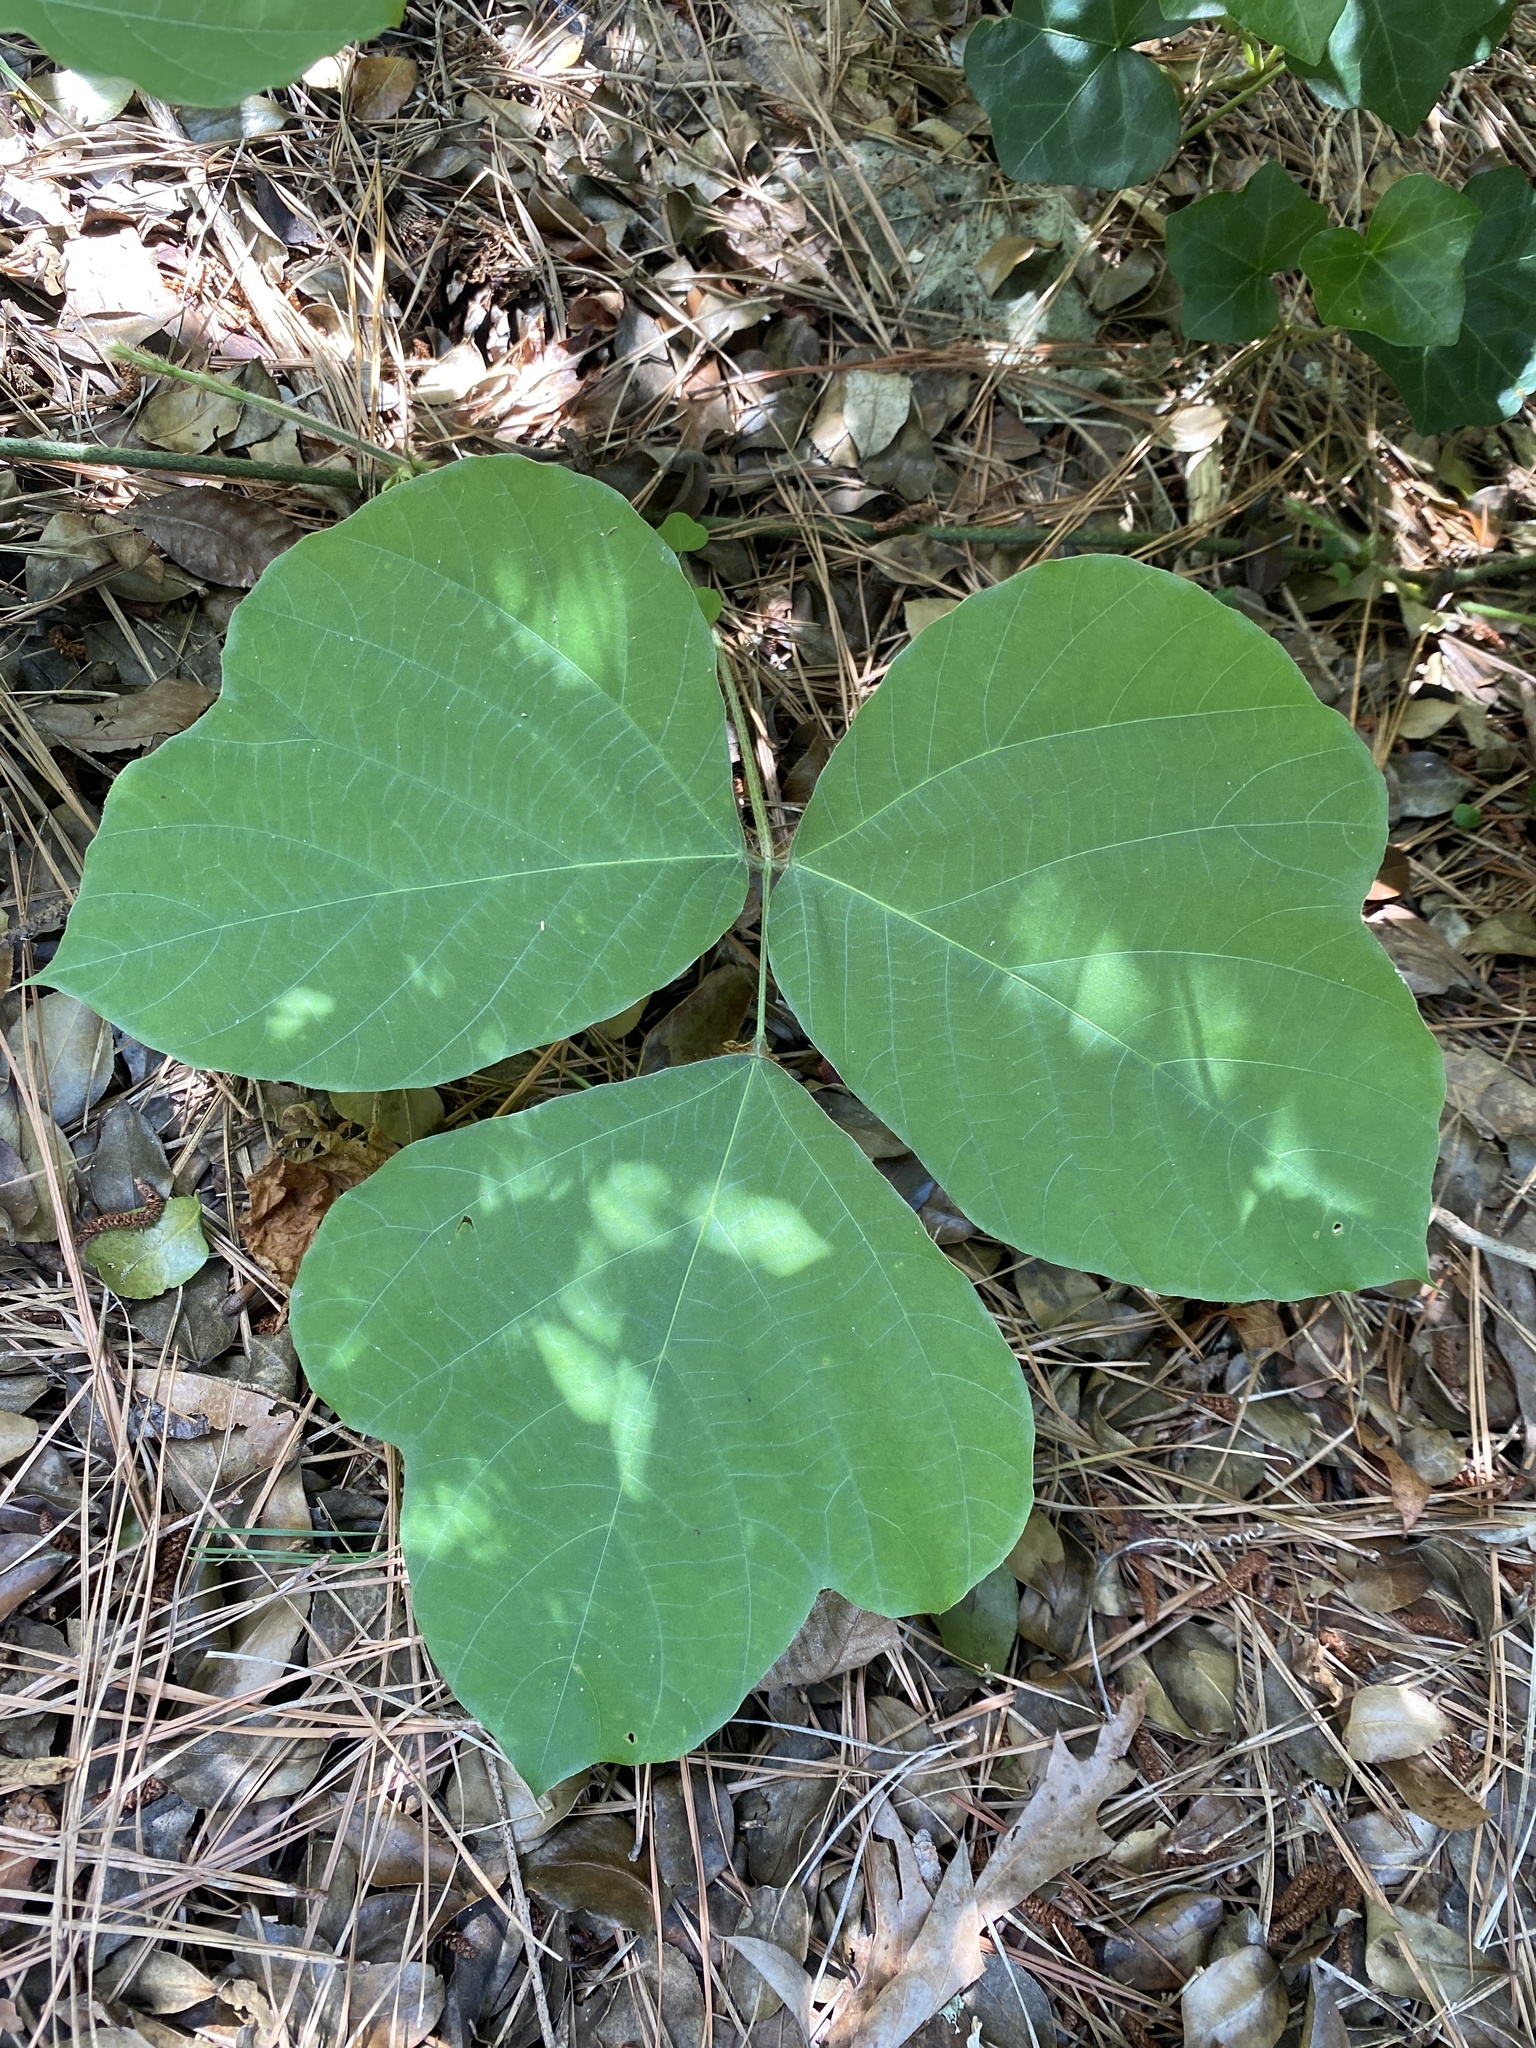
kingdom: Plantae
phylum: Tracheophyta
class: Magnoliopsida
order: Fabales
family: Fabaceae
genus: Pueraria
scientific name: Pueraria montana
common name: Kudzu
